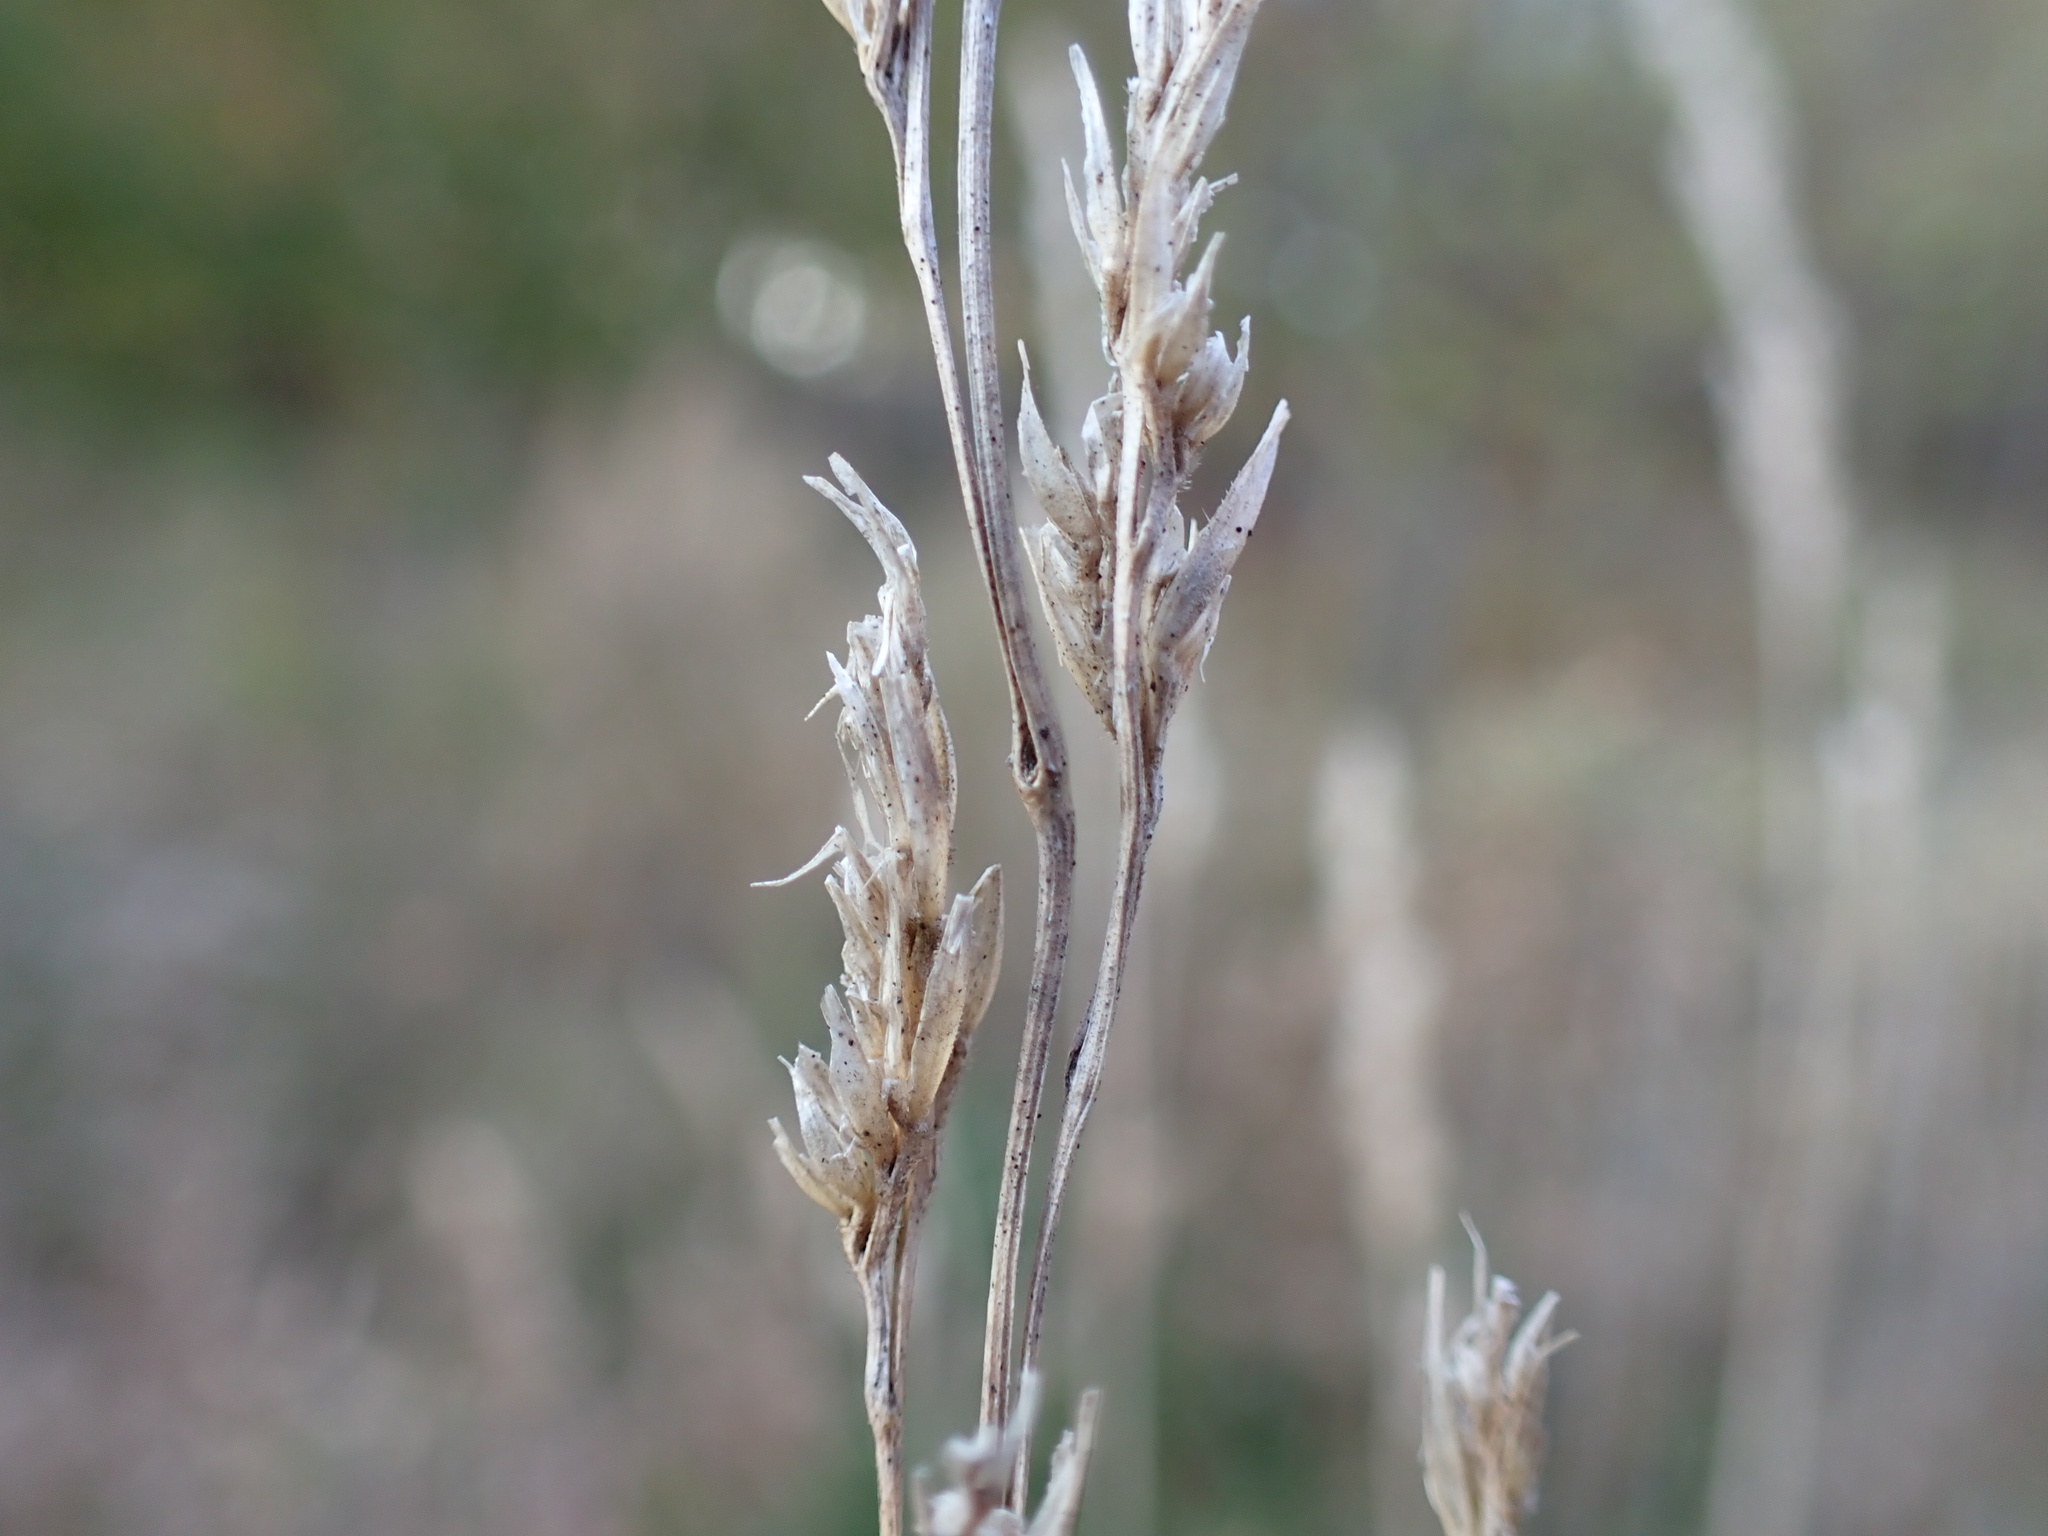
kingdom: Plantae
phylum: Tracheophyta
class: Liliopsida
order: Poales
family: Poaceae
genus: Dactylis
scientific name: Dactylis glomerata
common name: Orchardgrass
